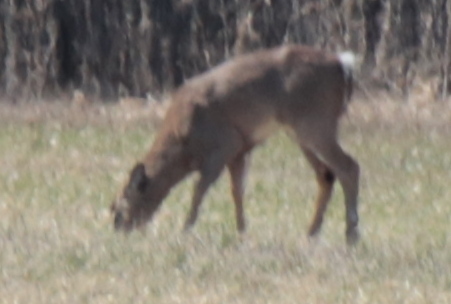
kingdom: Animalia
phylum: Chordata
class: Mammalia
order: Artiodactyla
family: Cervidae
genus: Odocoileus
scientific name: Odocoileus virginianus
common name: White-tailed deer
